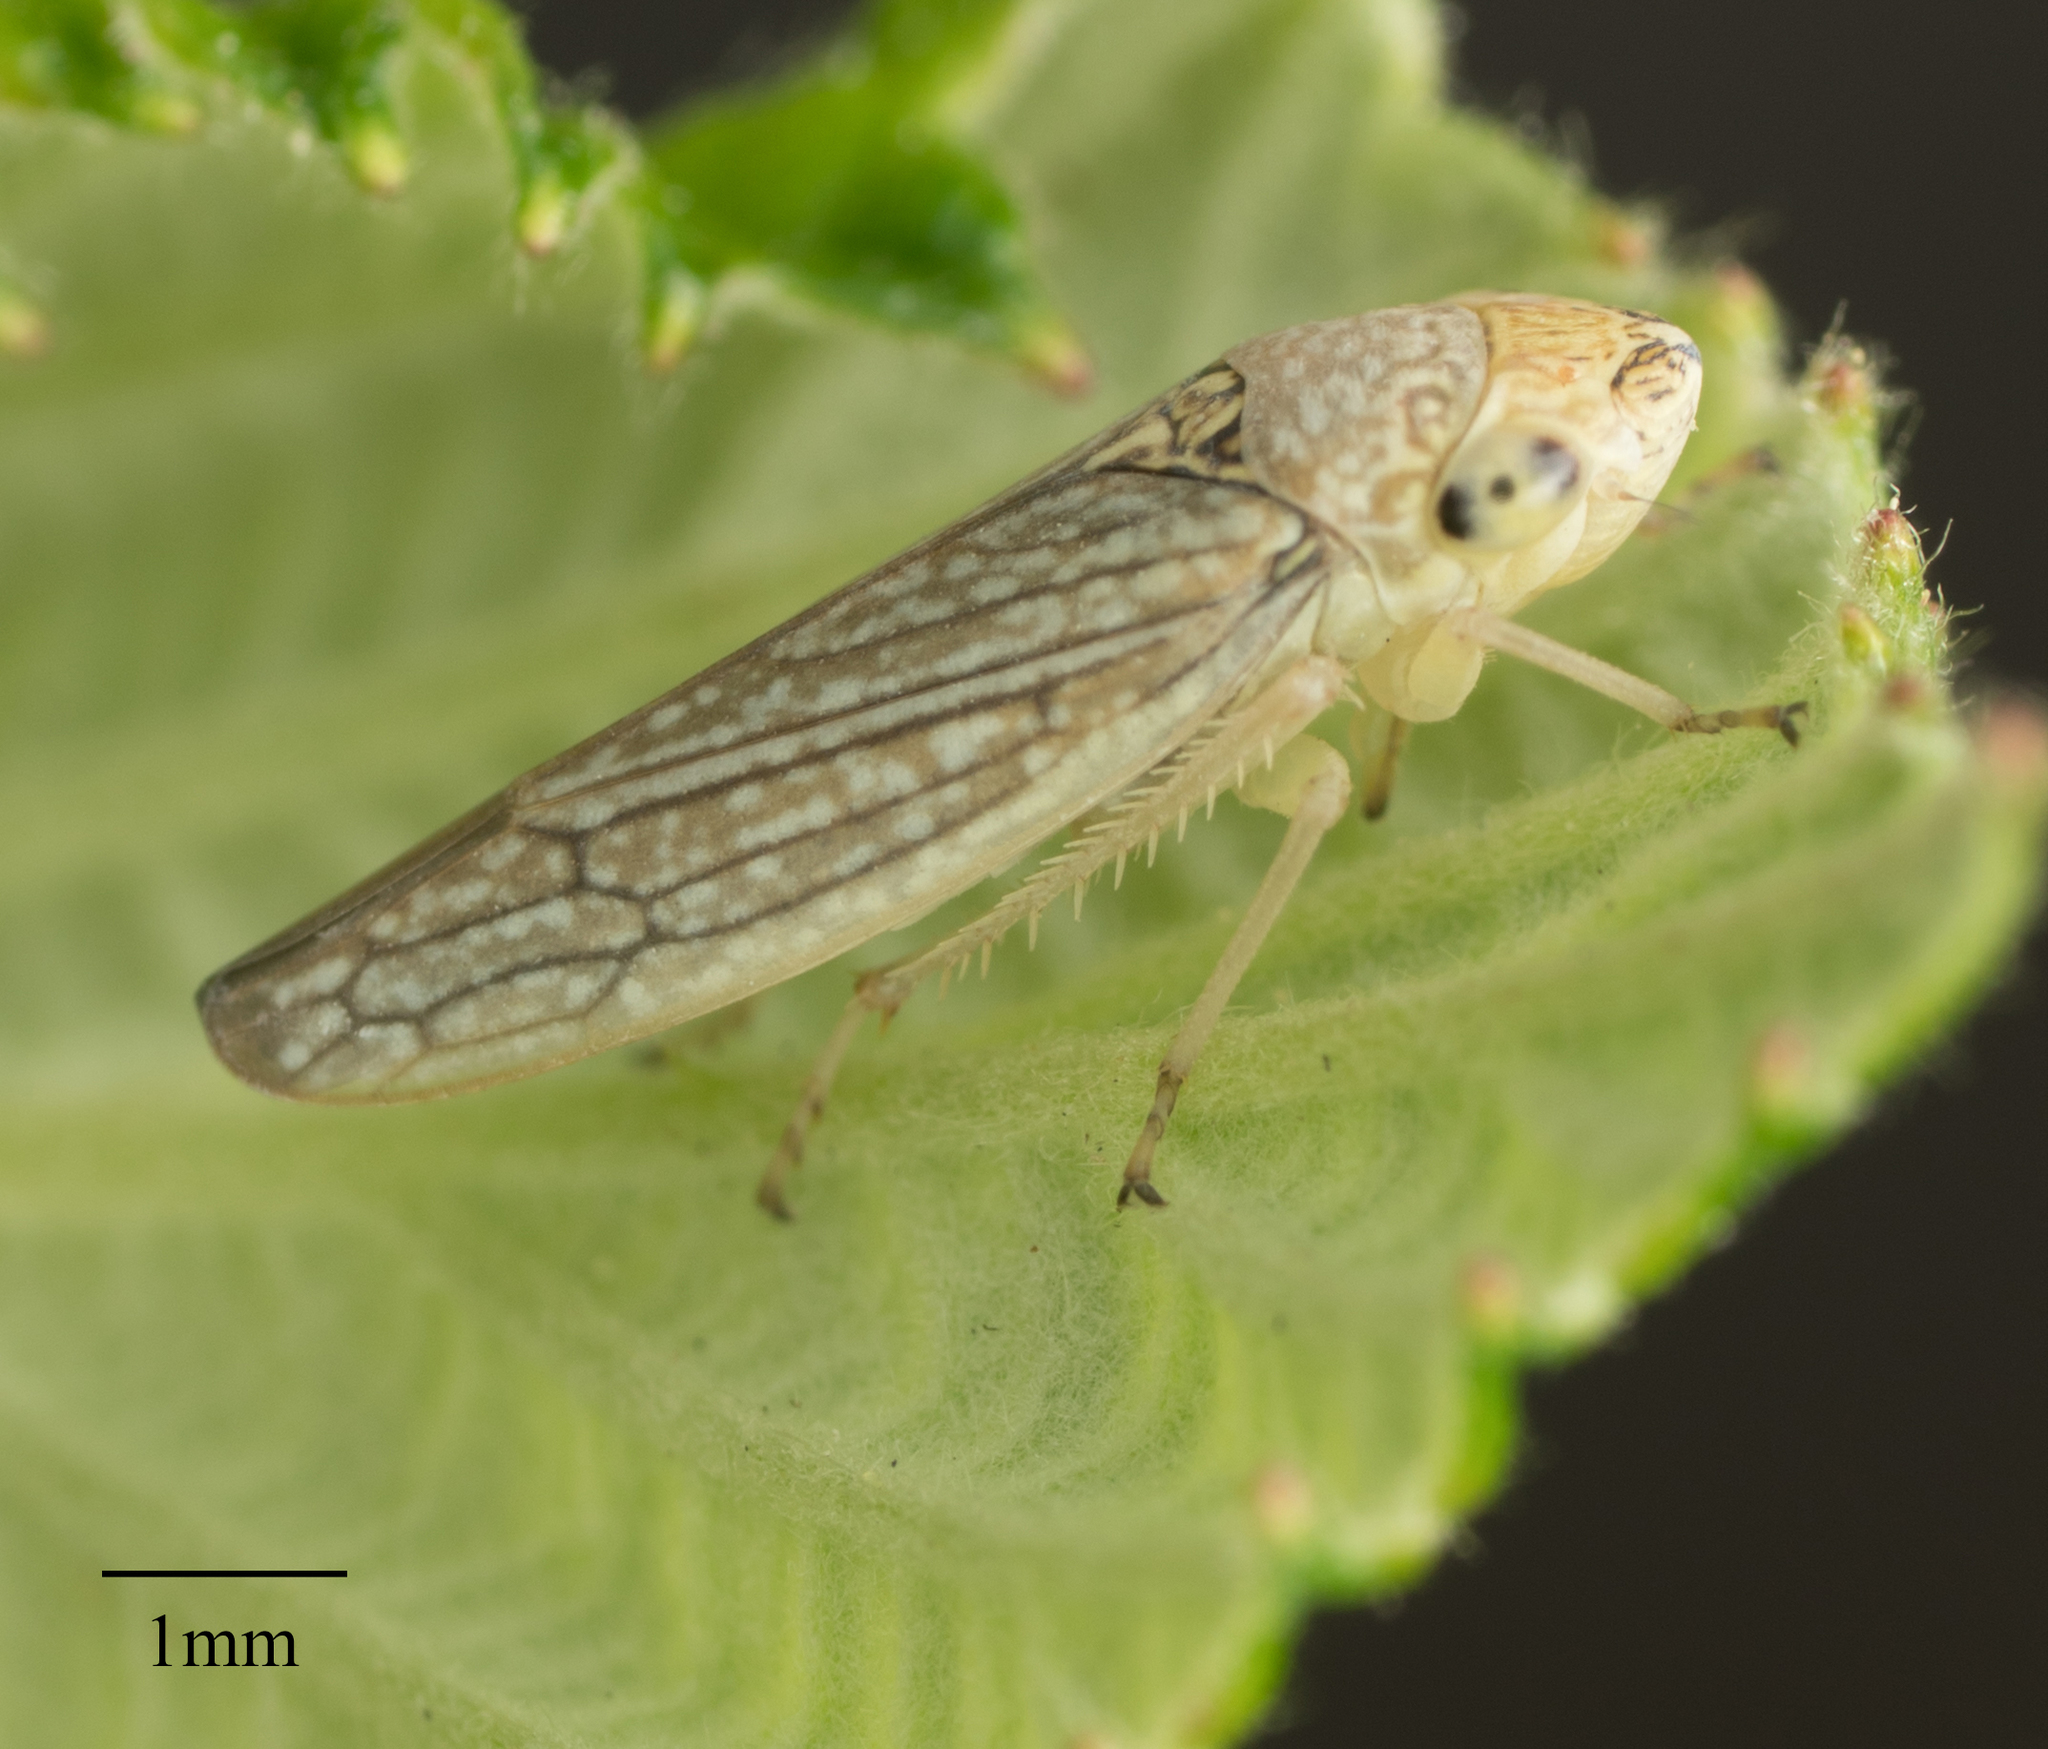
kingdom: Animalia
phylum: Arthropoda
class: Insecta
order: Hemiptera
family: Cicadellidae
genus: Graphocephala
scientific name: Graphocephala confluens
